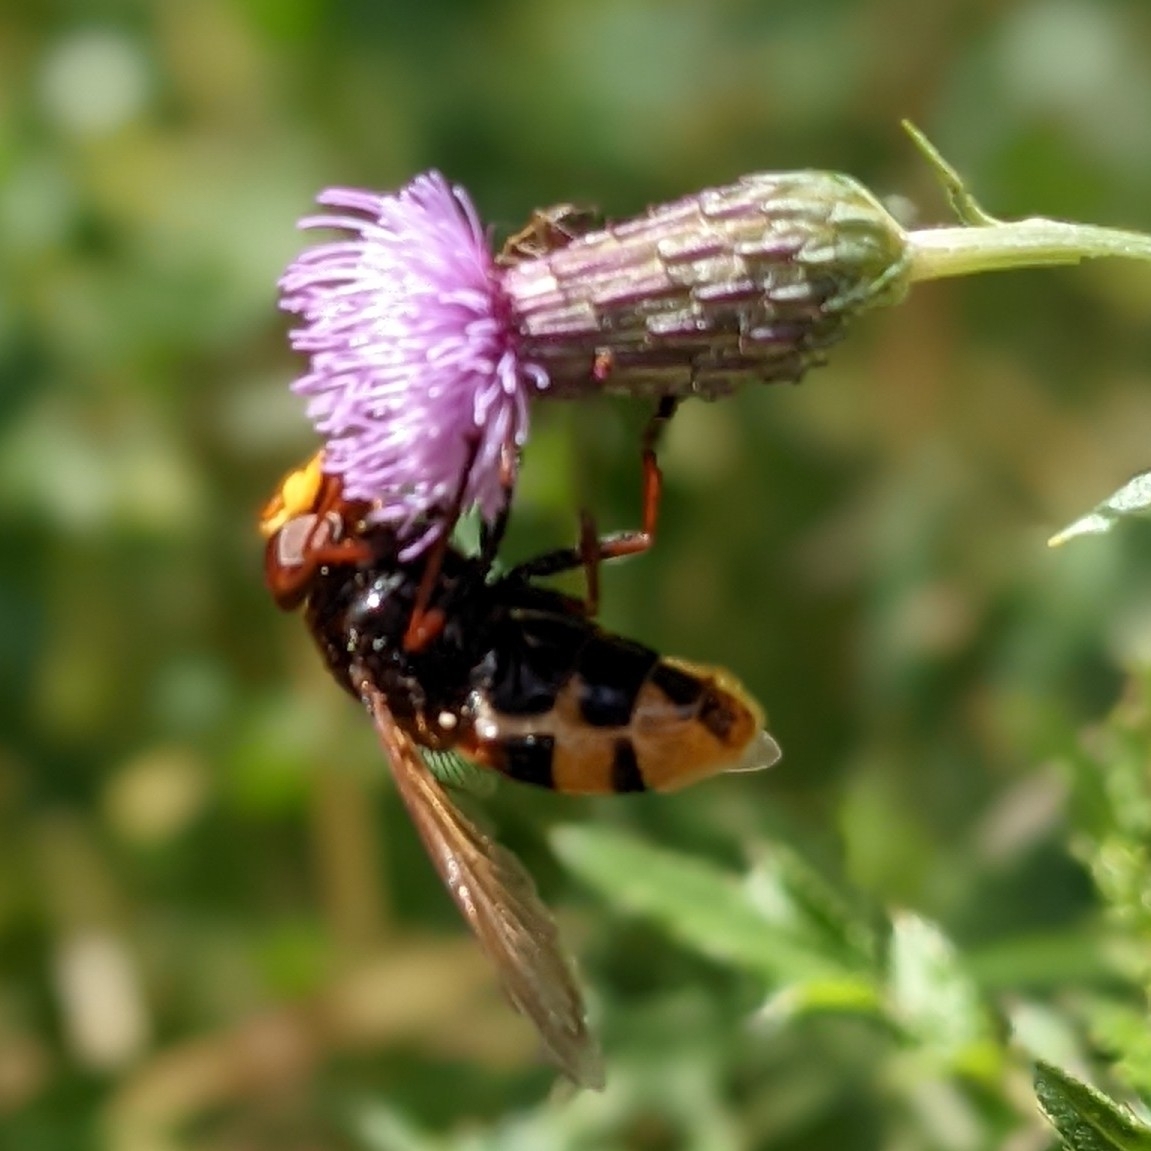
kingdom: Animalia
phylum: Arthropoda
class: Insecta
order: Diptera
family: Syrphidae
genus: Volucella
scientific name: Volucella zonaria
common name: Hornet hoverfly
